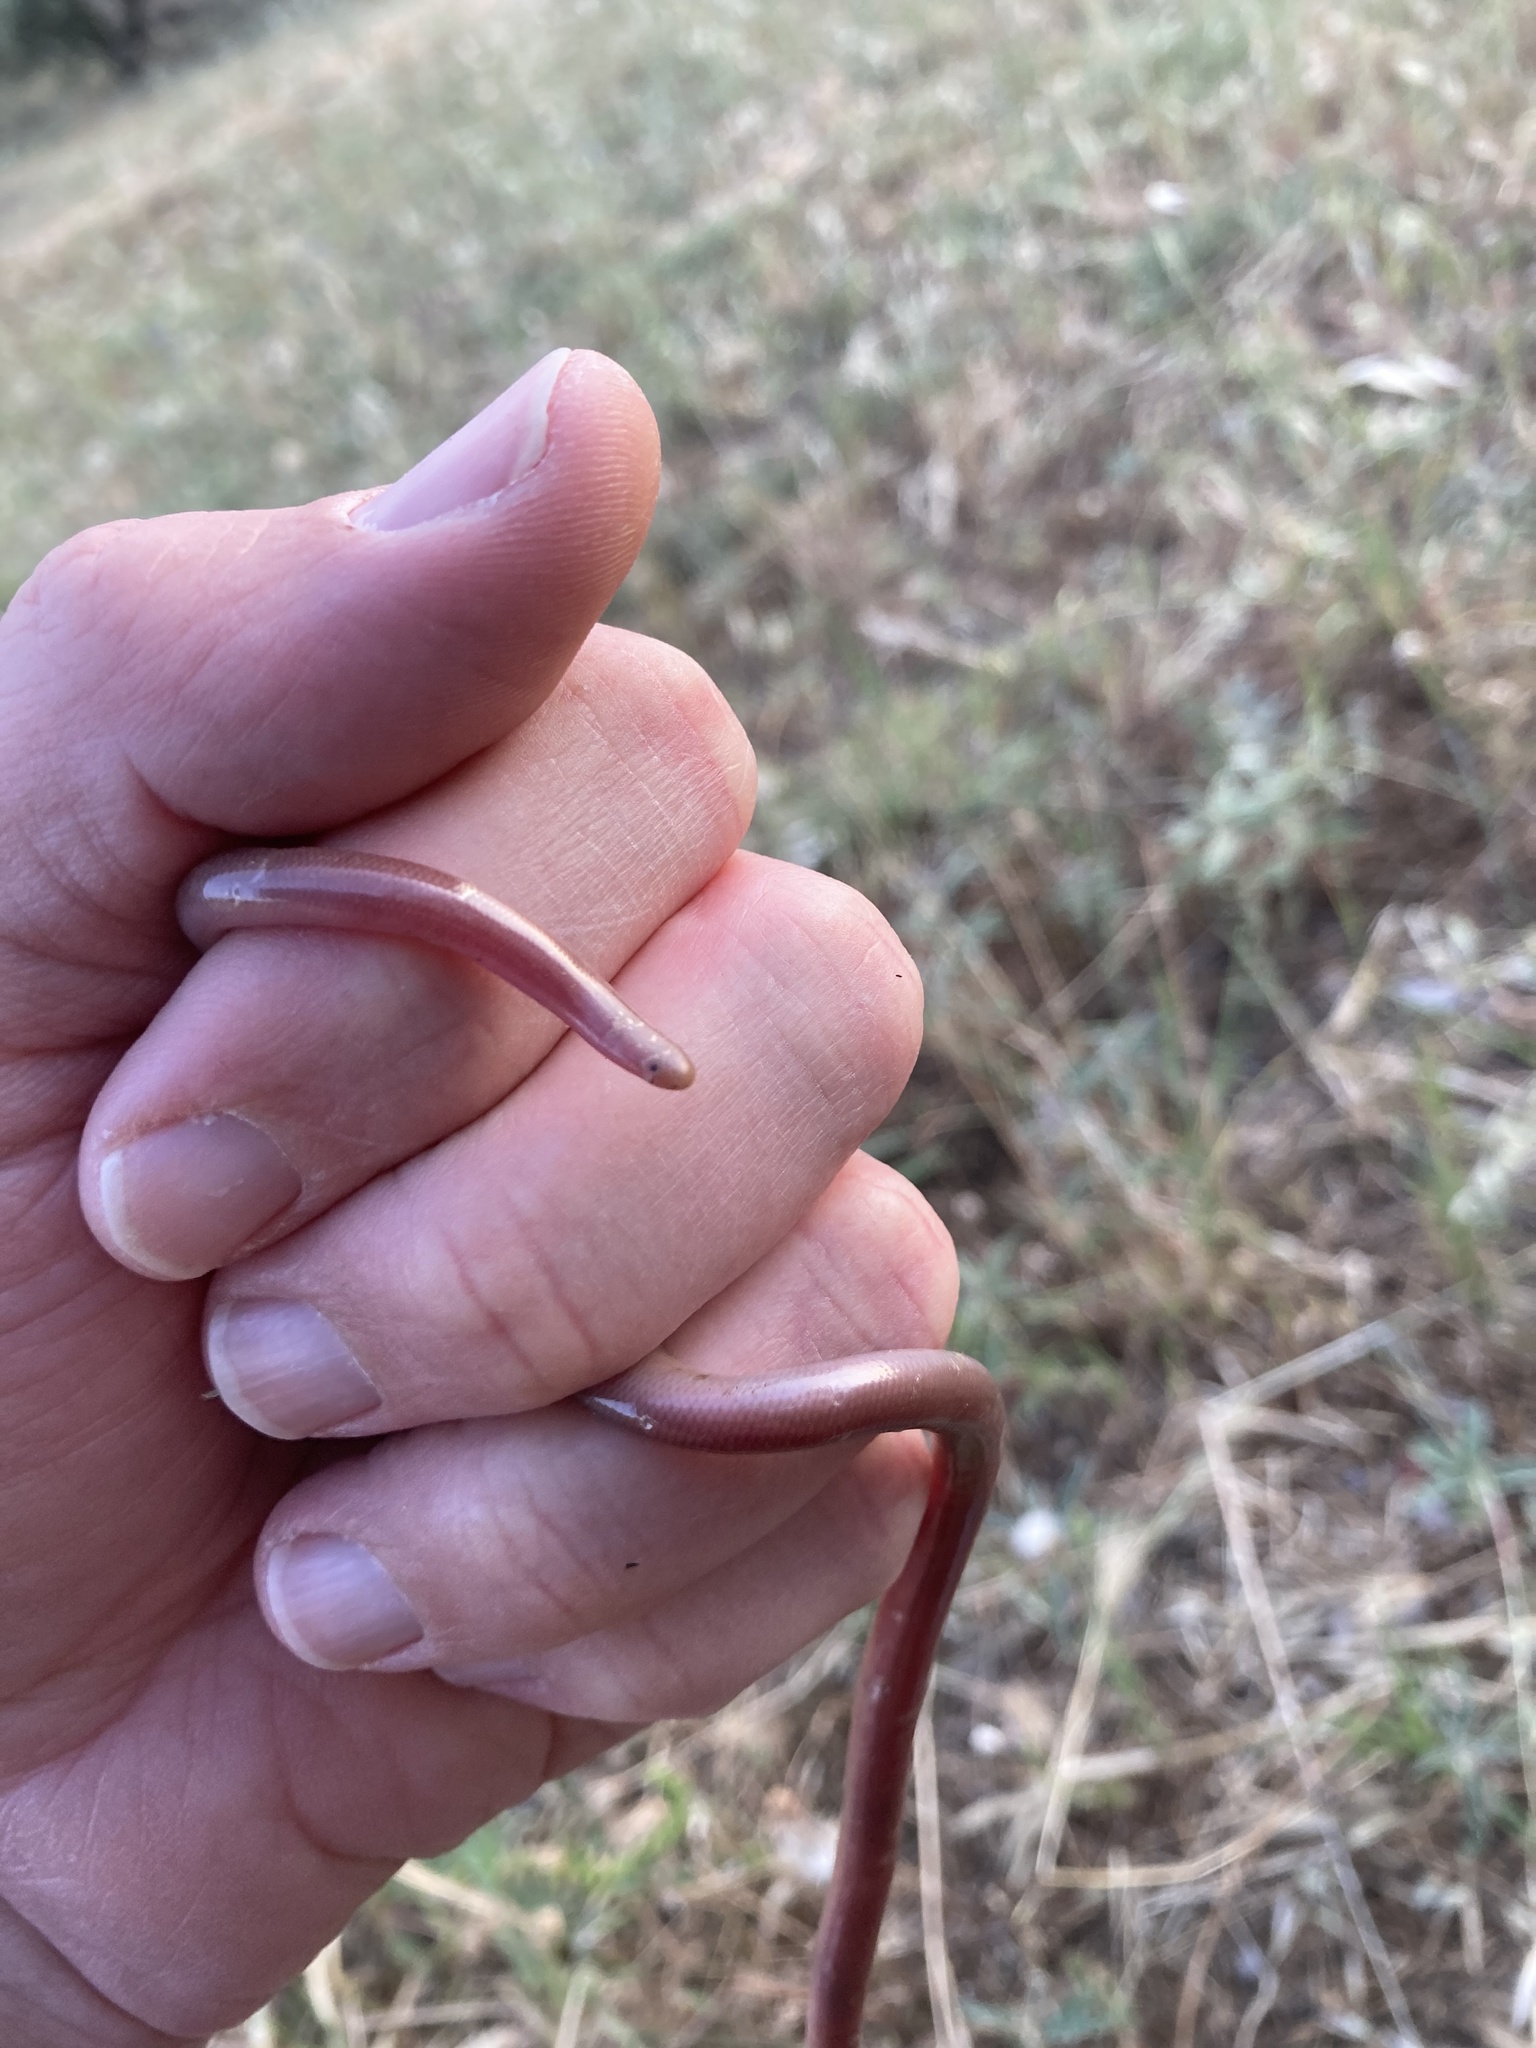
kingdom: Animalia
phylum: Chordata
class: Squamata
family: Typhlopidae
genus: Xerotyphlops
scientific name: Xerotyphlops vermicularis
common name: Eurasian blind snake
